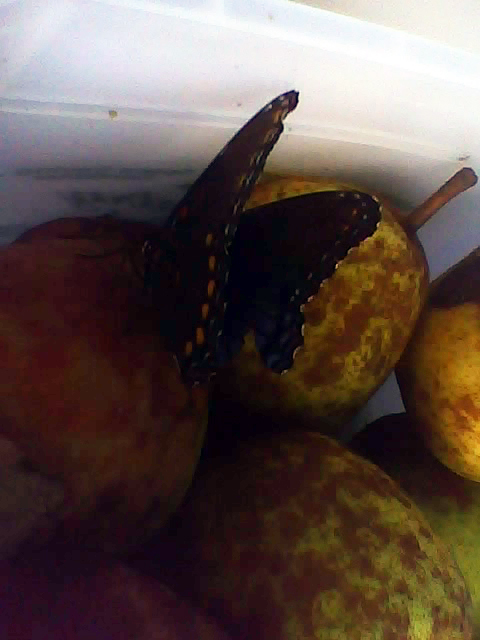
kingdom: Animalia
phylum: Arthropoda
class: Insecta
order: Lepidoptera
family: Nymphalidae
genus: Limenitis
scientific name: Limenitis astyanax
